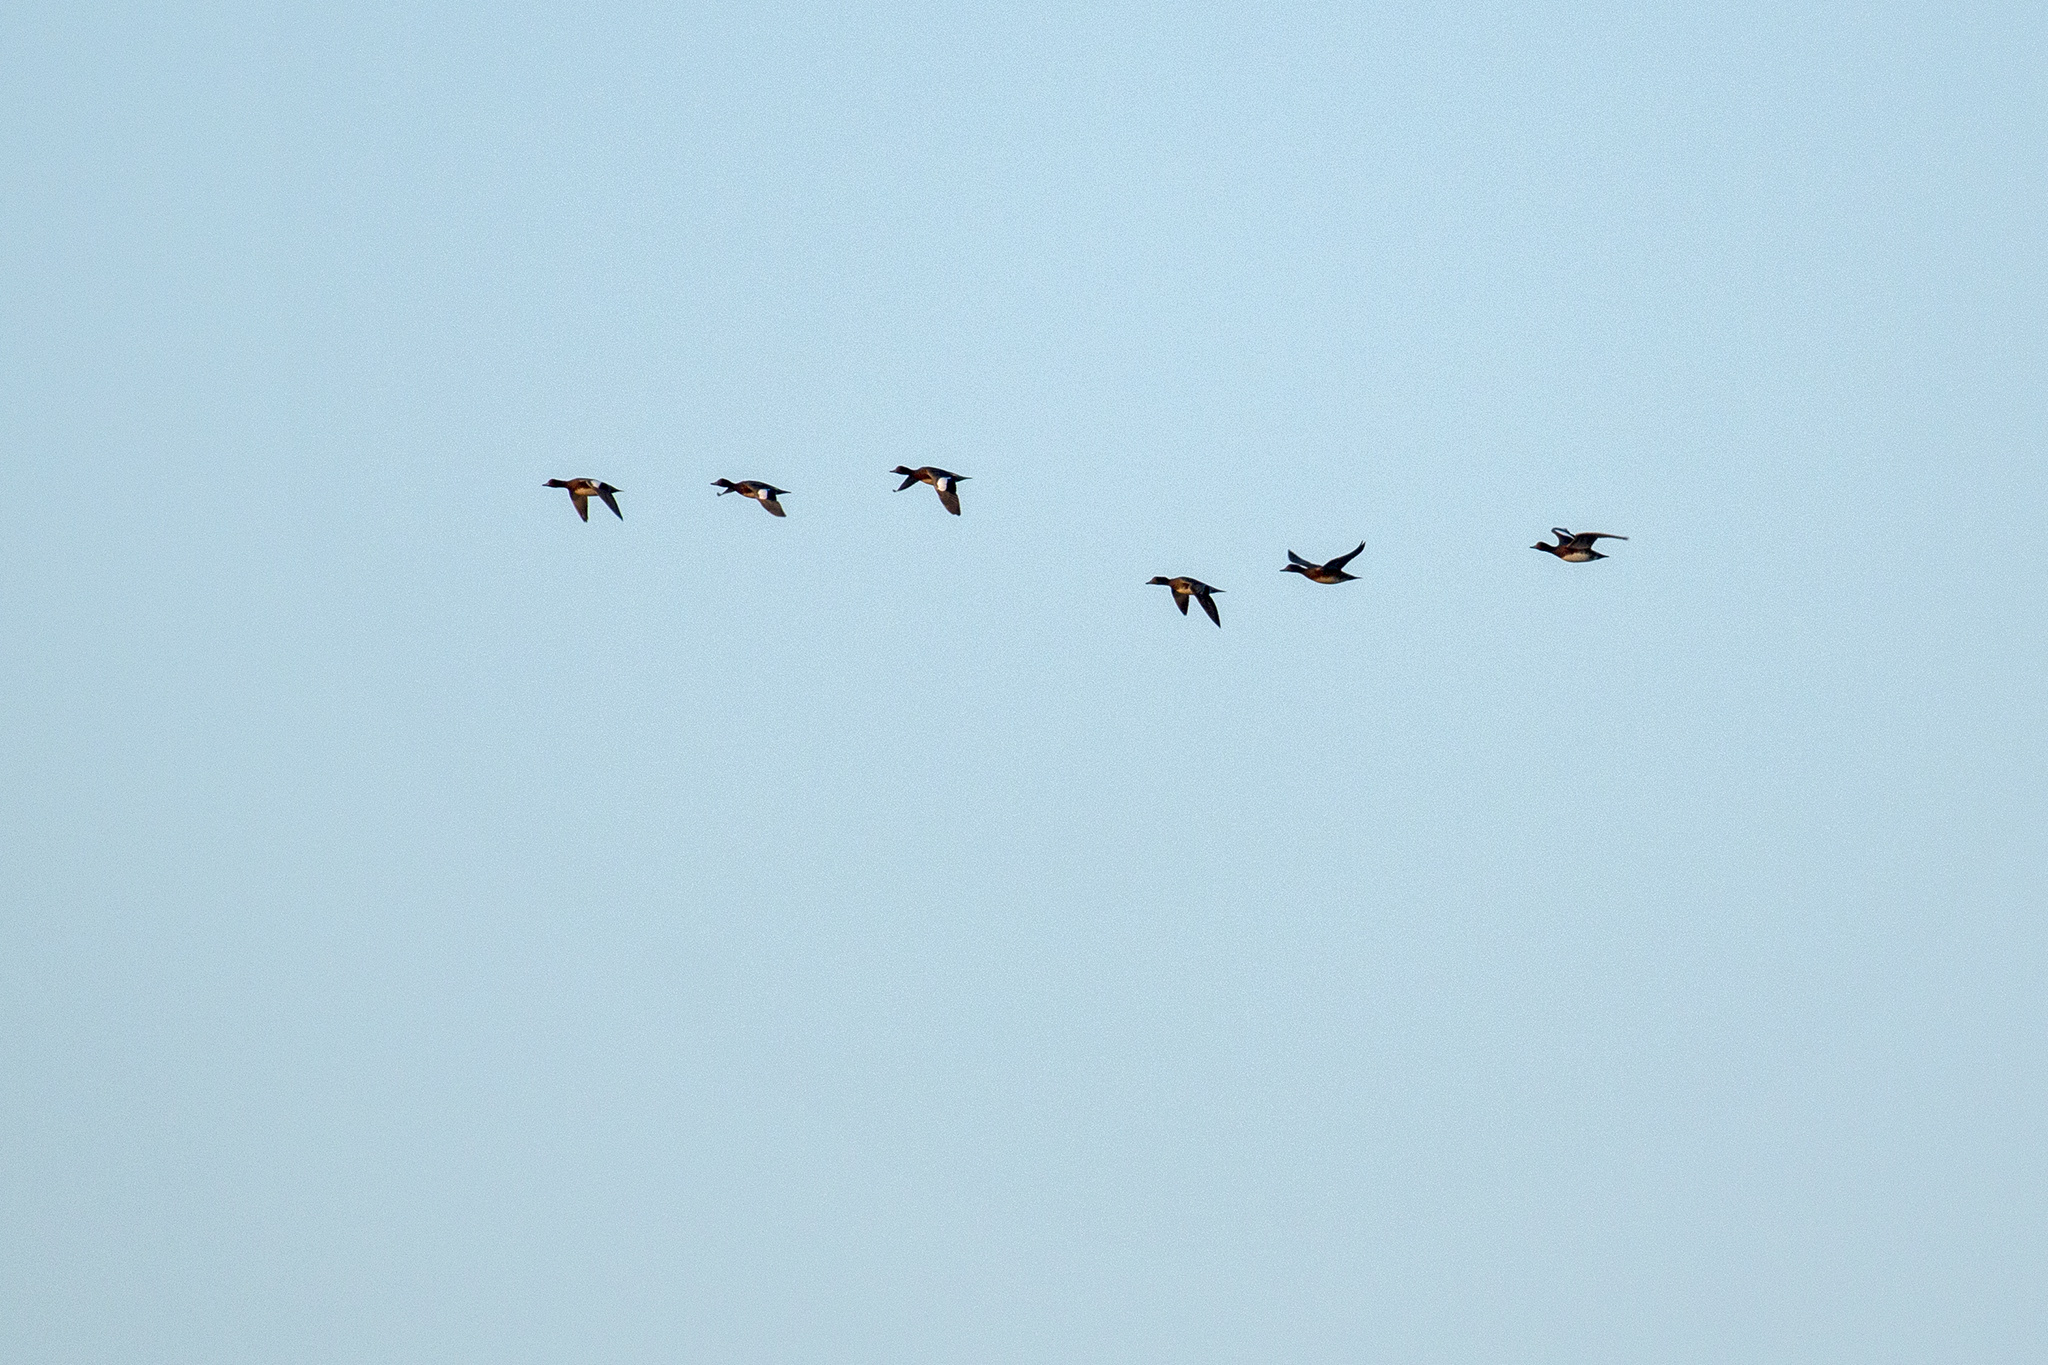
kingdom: Animalia
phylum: Chordata
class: Aves
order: Anseriformes
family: Anatidae
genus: Mareca
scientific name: Mareca penelope
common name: Eurasian wigeon
